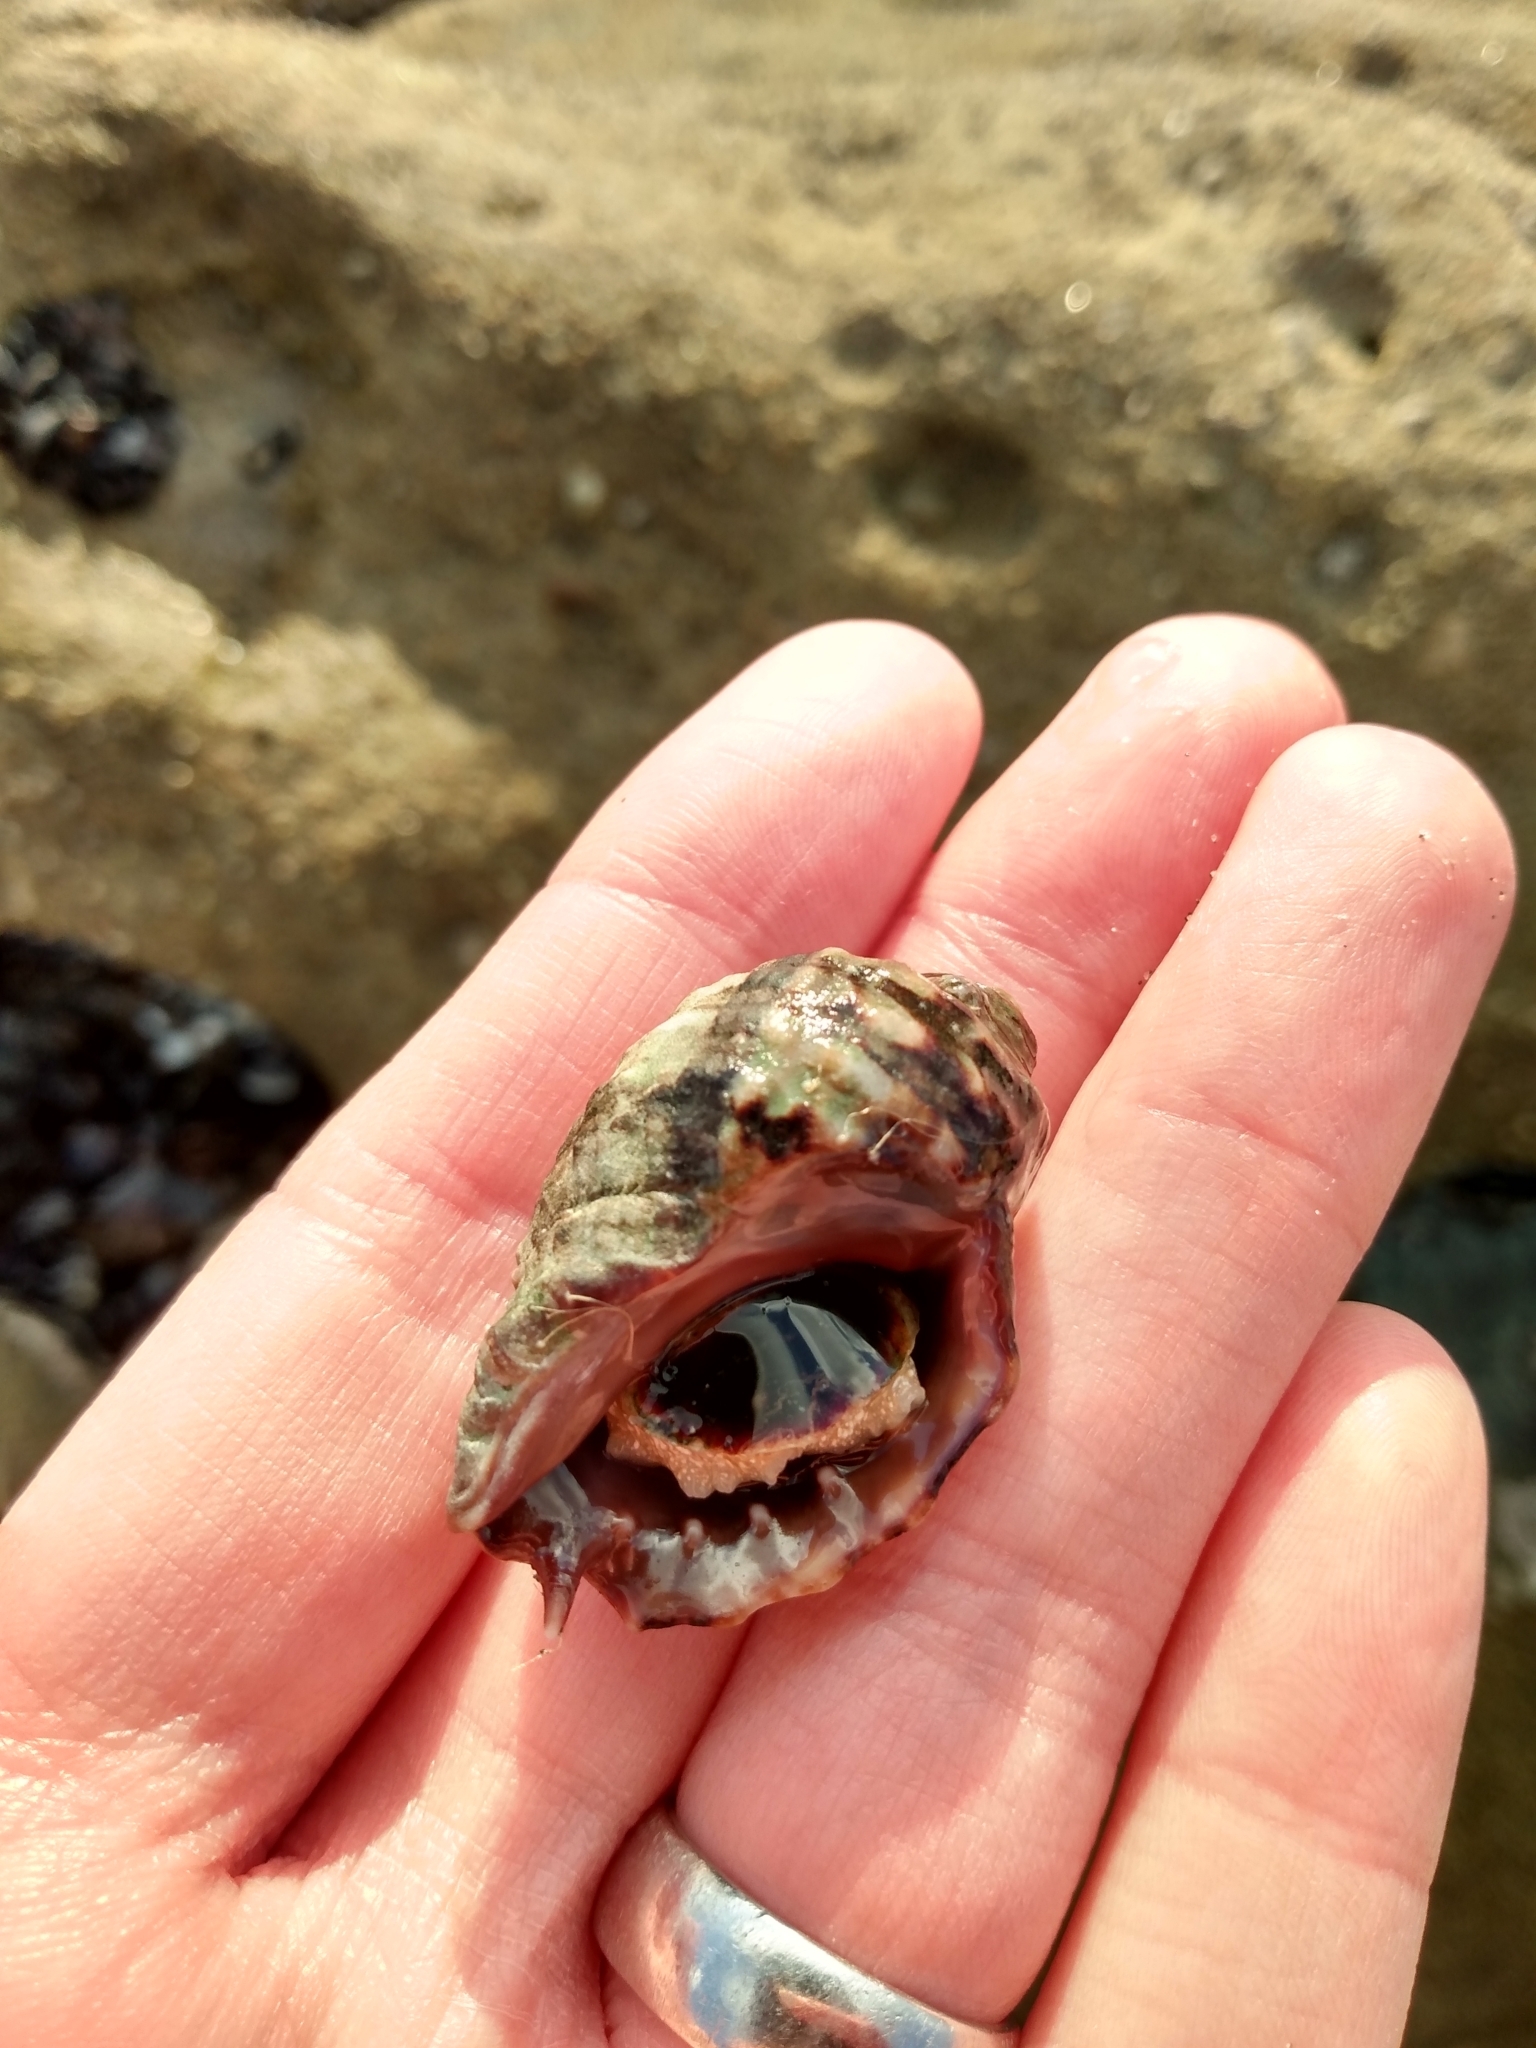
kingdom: Animalia
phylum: Mollusca
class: Gastropoda
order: Neogastropoda
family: Muricidae
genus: Mexacanthina
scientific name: Mexacanthina lugubris
